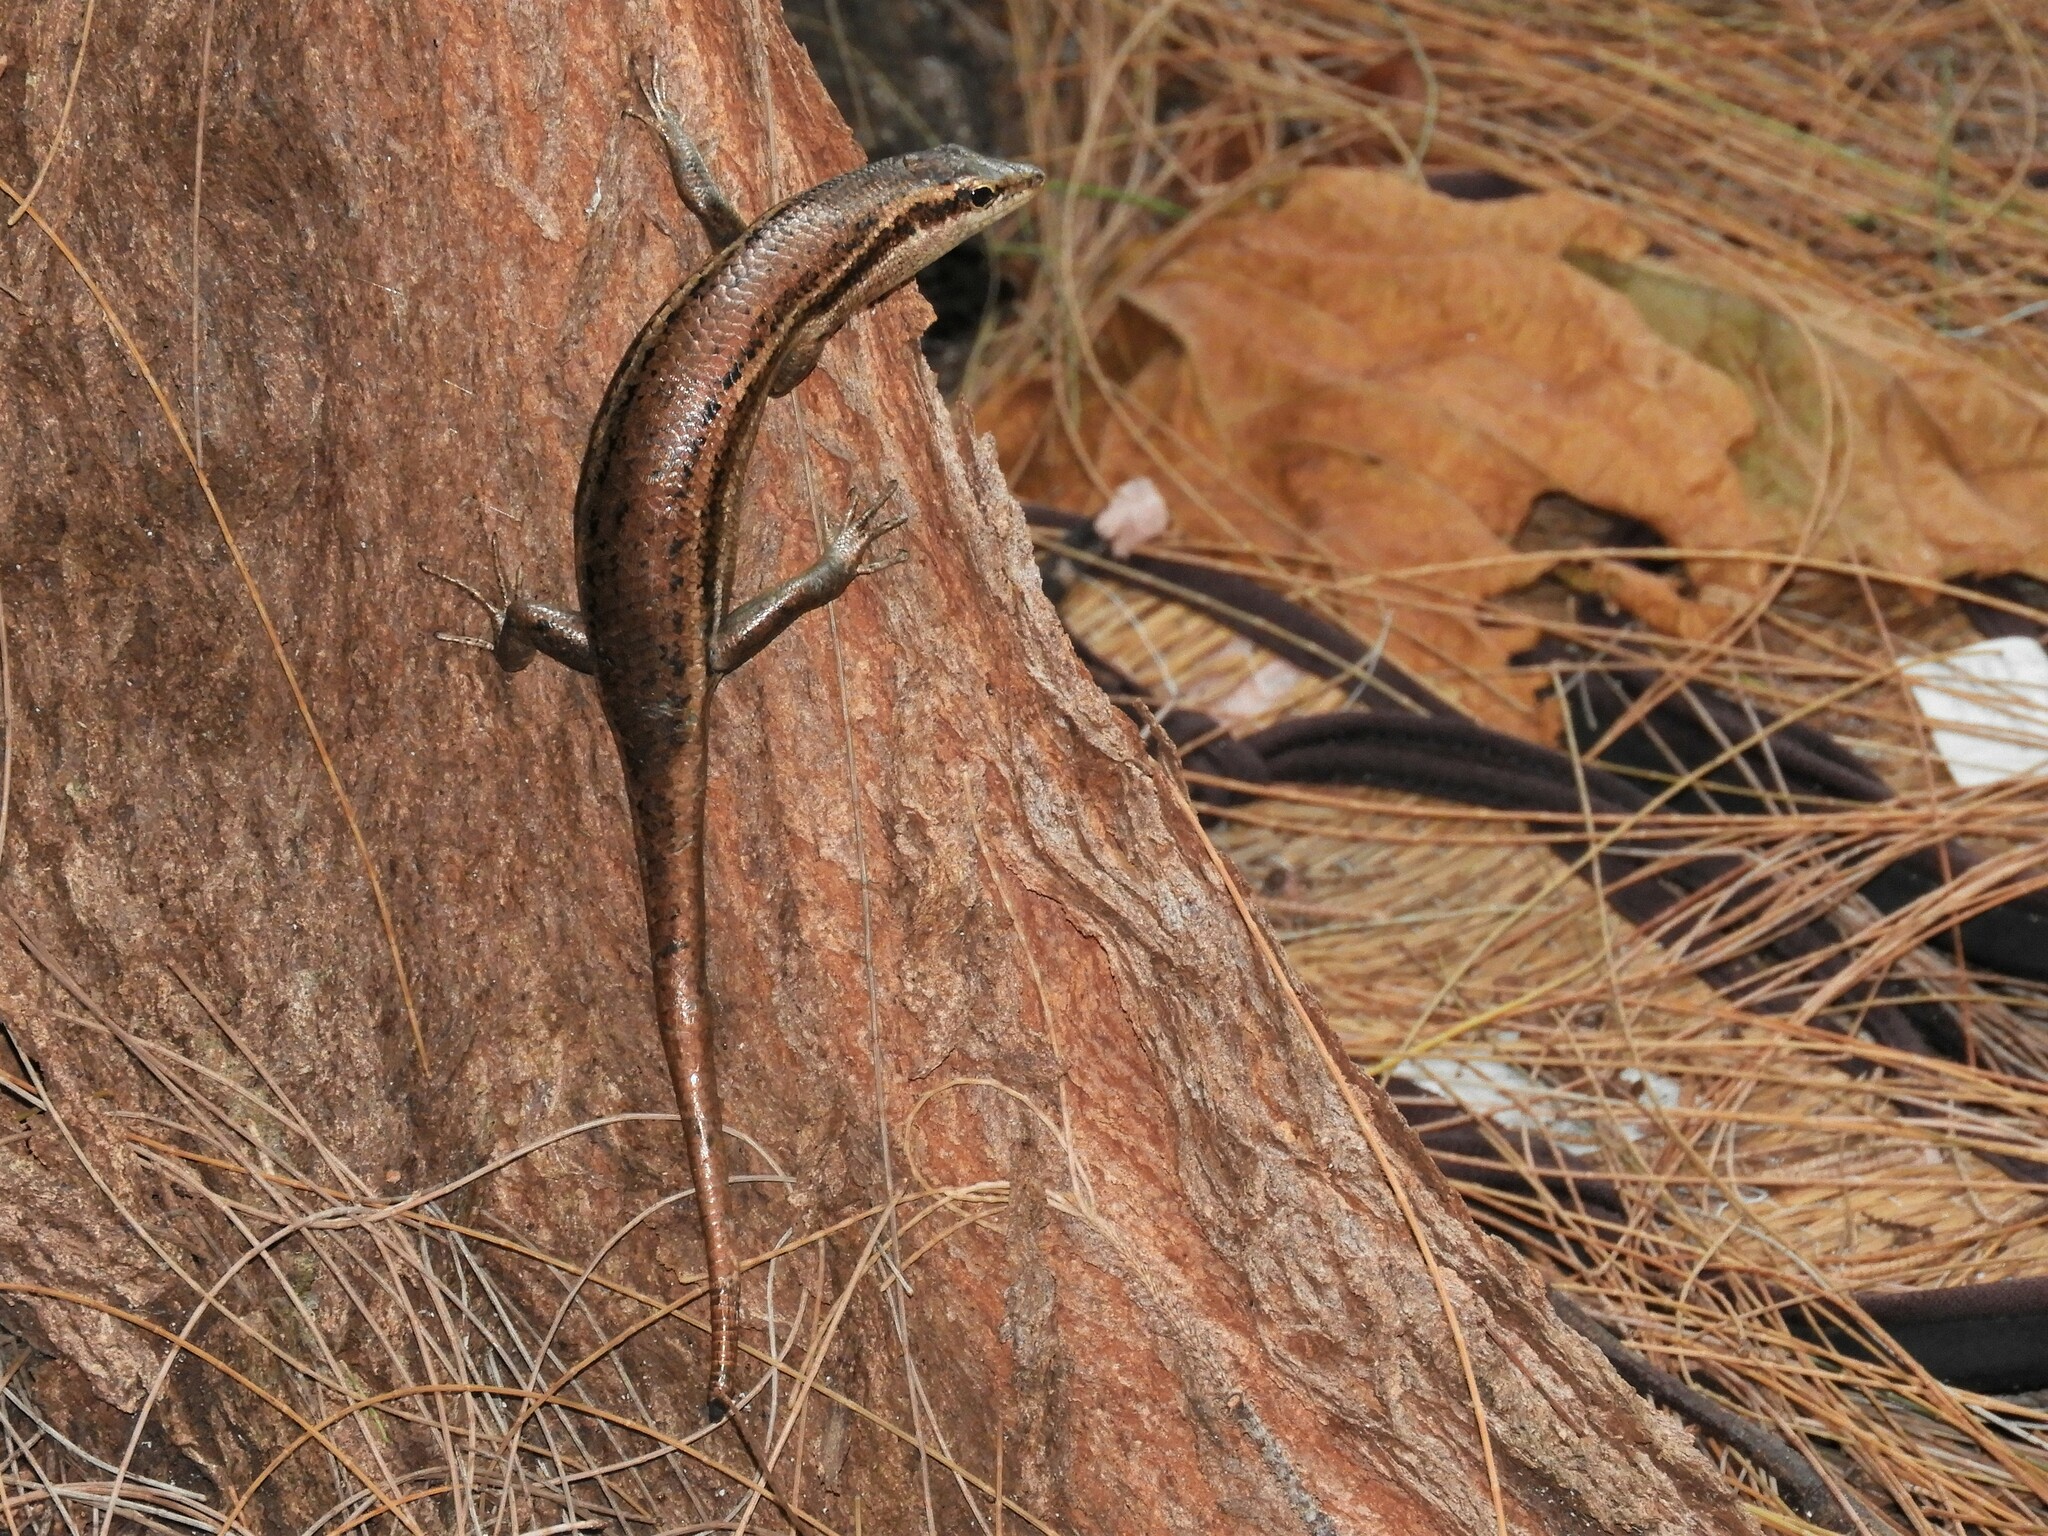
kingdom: Animalia
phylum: Chordata
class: Squamata
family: Scincidae
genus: Trachylepis
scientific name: Trachylepis sechellensis
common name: Seychelles skink
